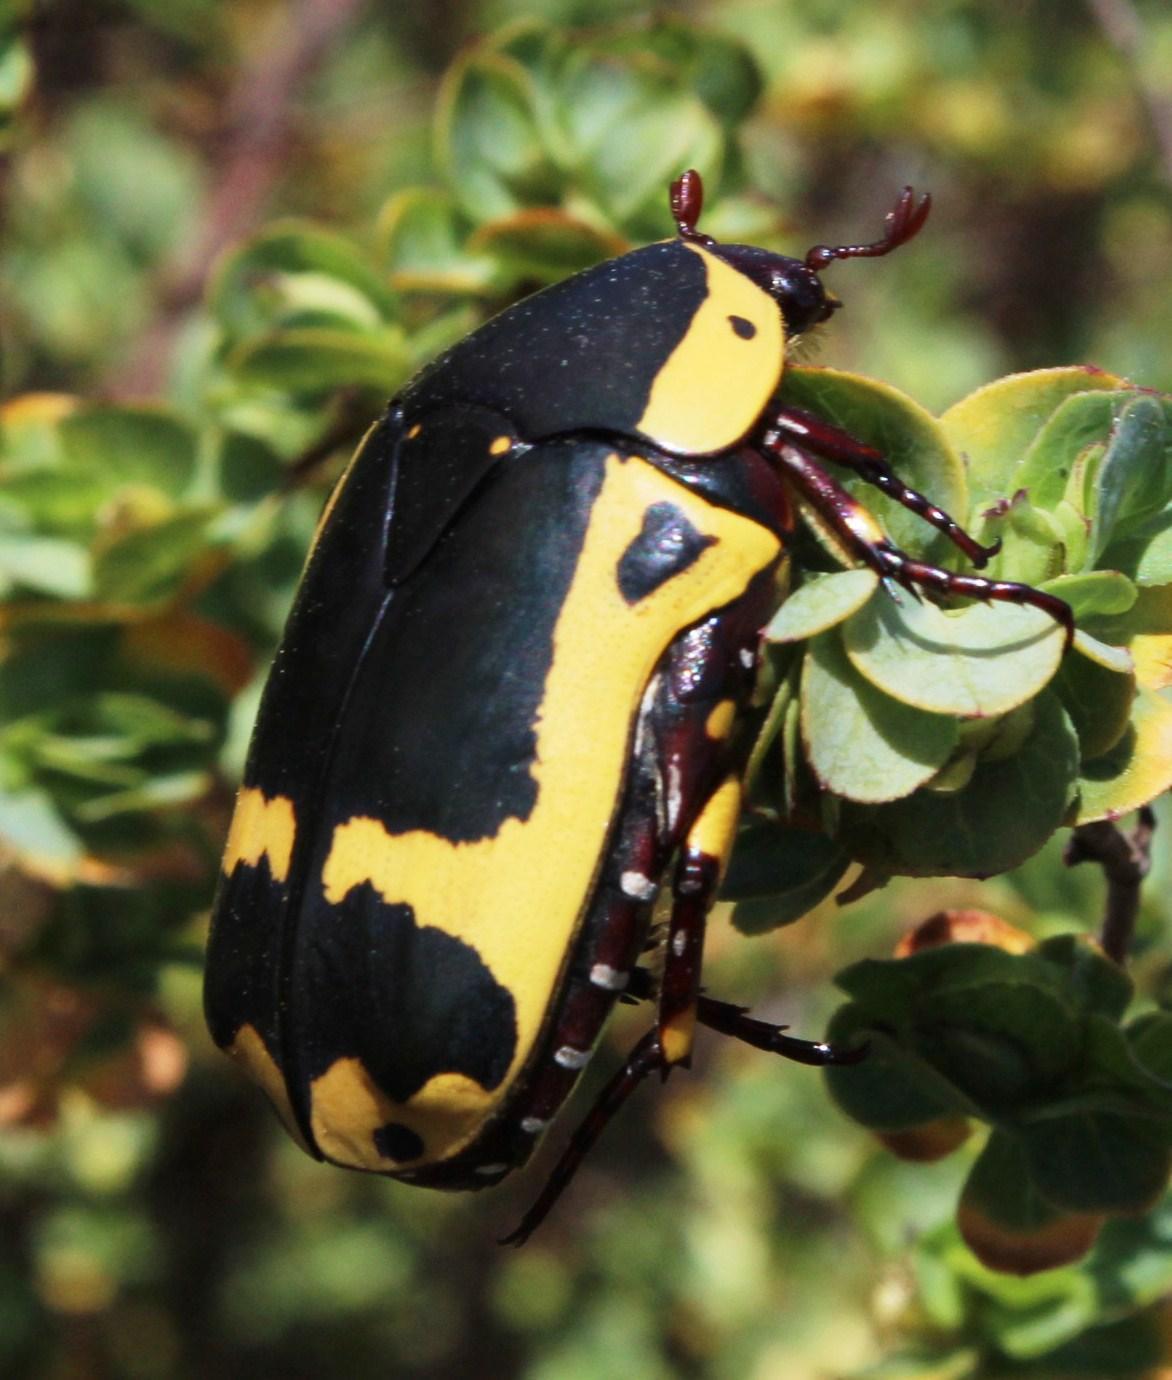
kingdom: Animalia
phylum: Arthropoda
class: Insecta
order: Coleoptera
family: Scarabaeidae
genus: Pachnoda
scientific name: Pachnoda sinuata
